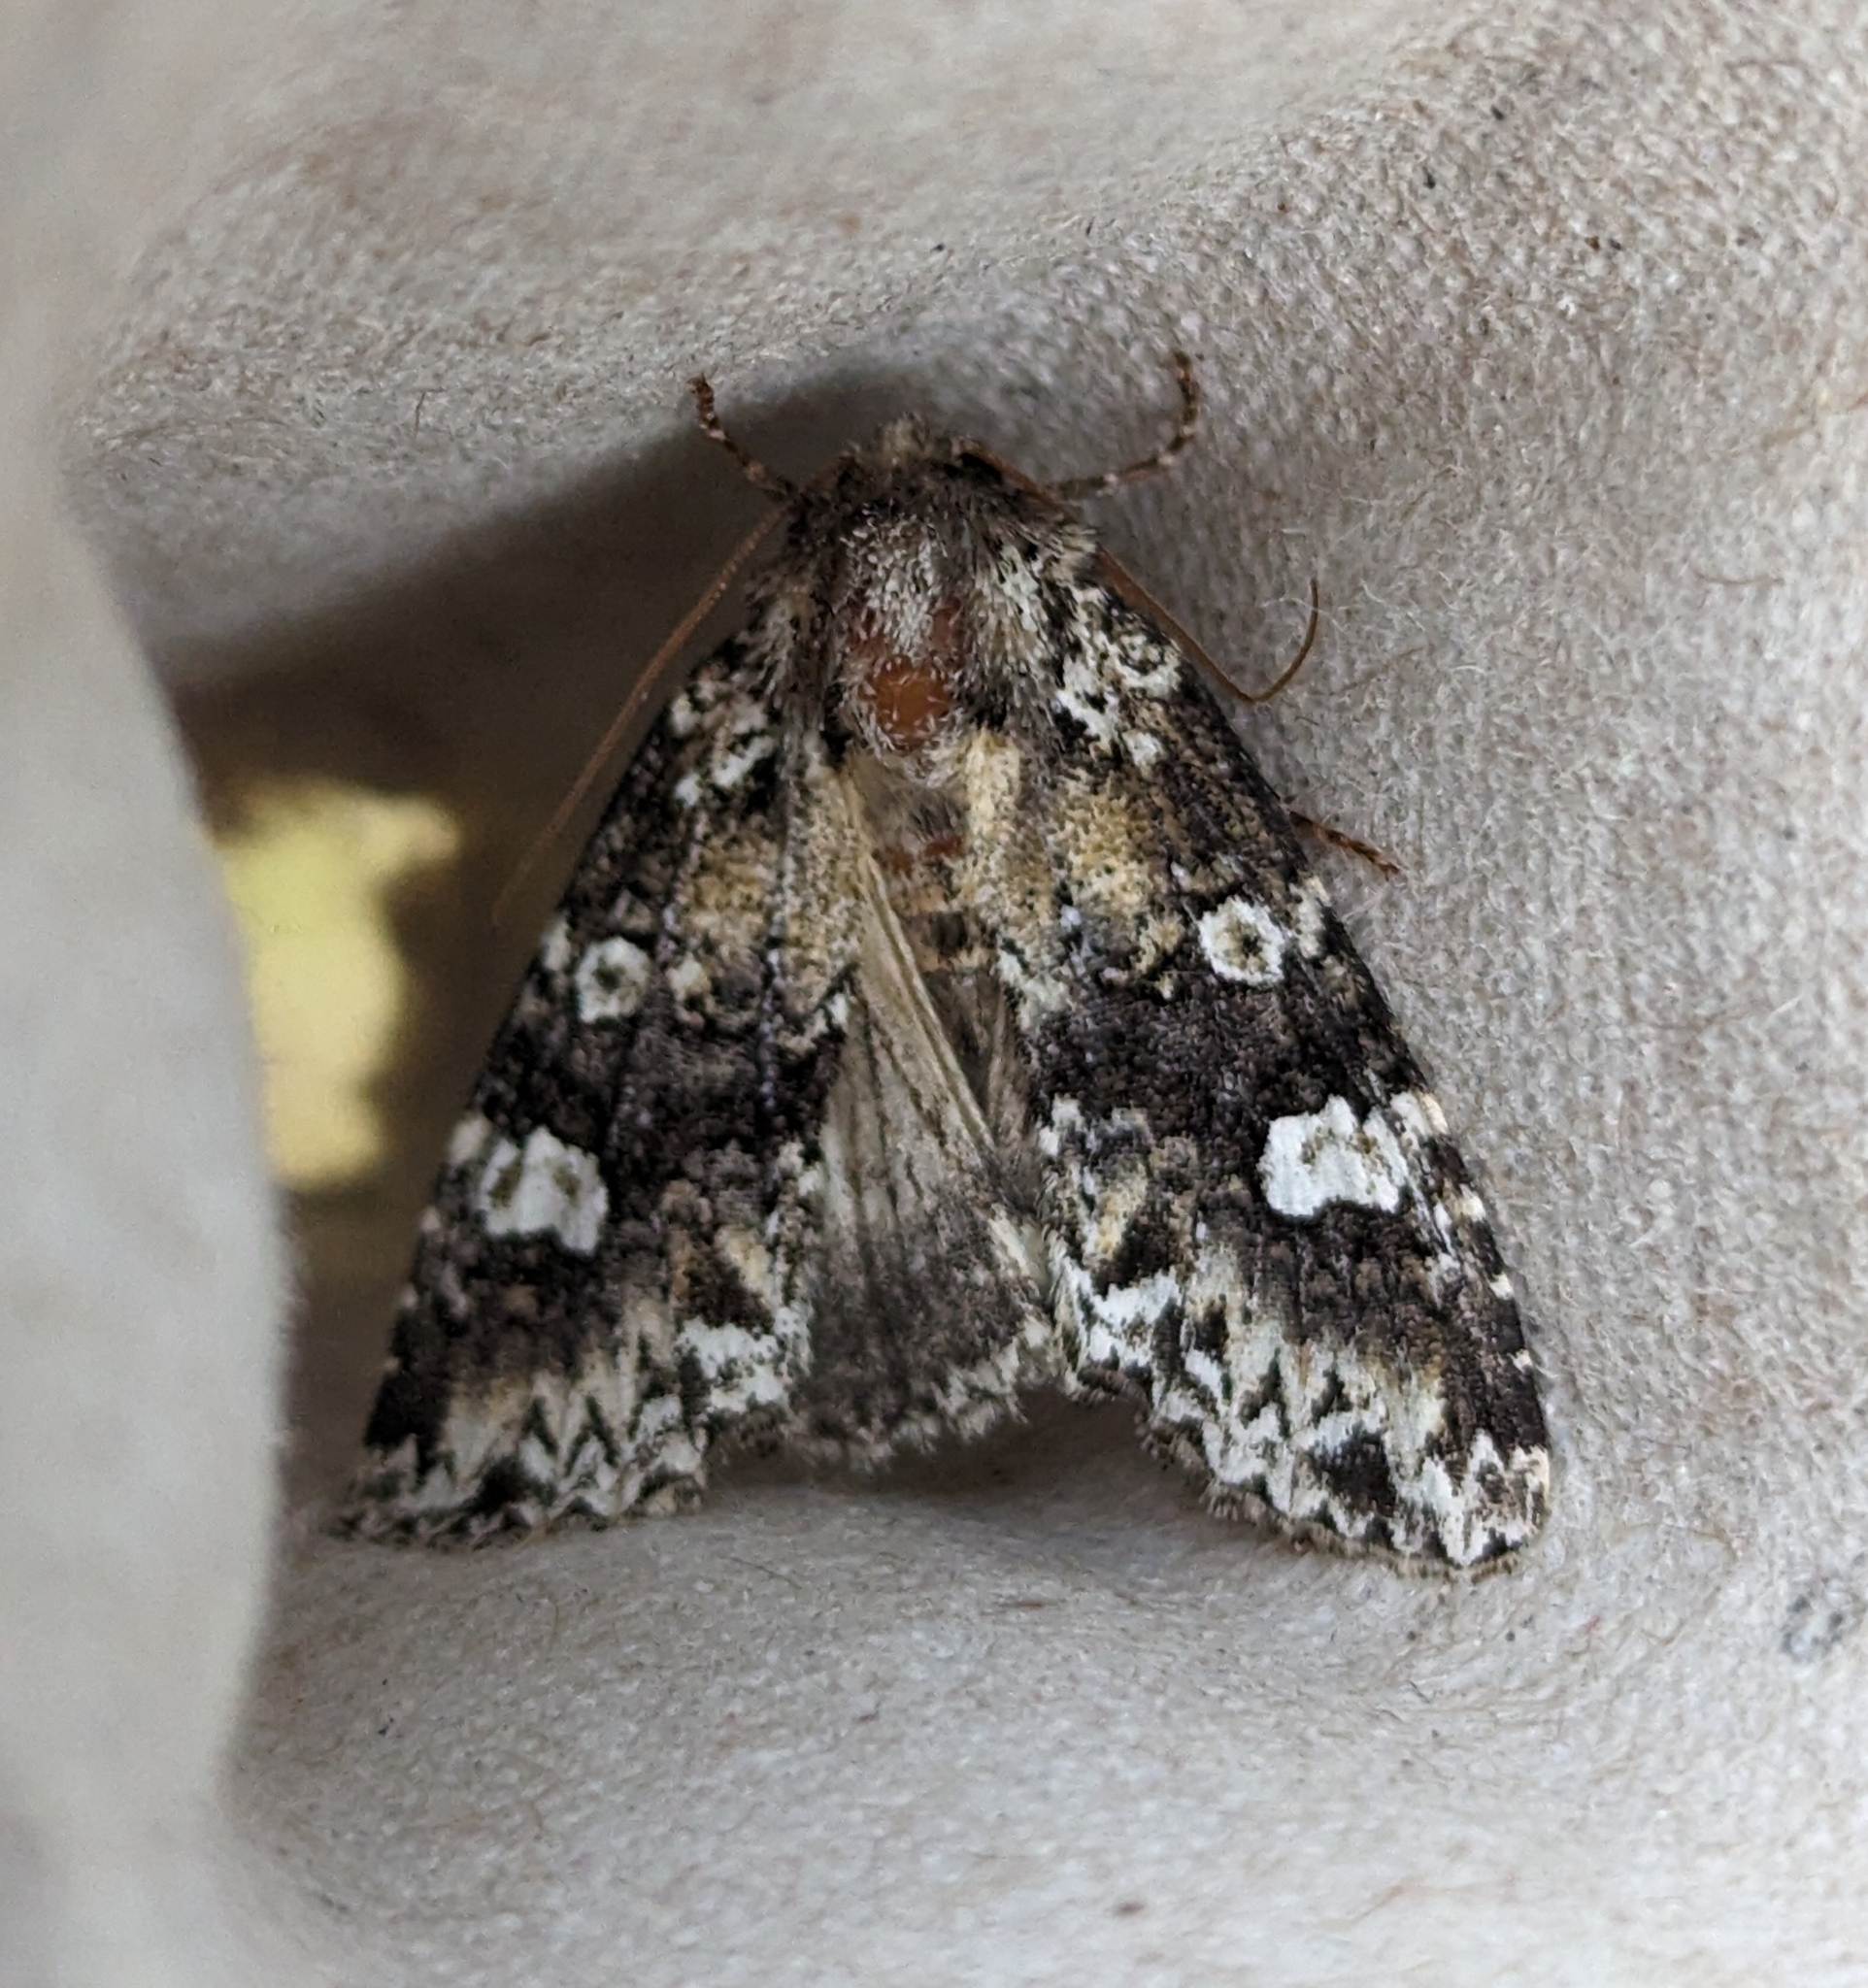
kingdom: Animalia
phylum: Arthropoda
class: Insecta
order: Lepidoptera
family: Noctuidae
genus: Melanchra
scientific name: Melanchra adjuncta
